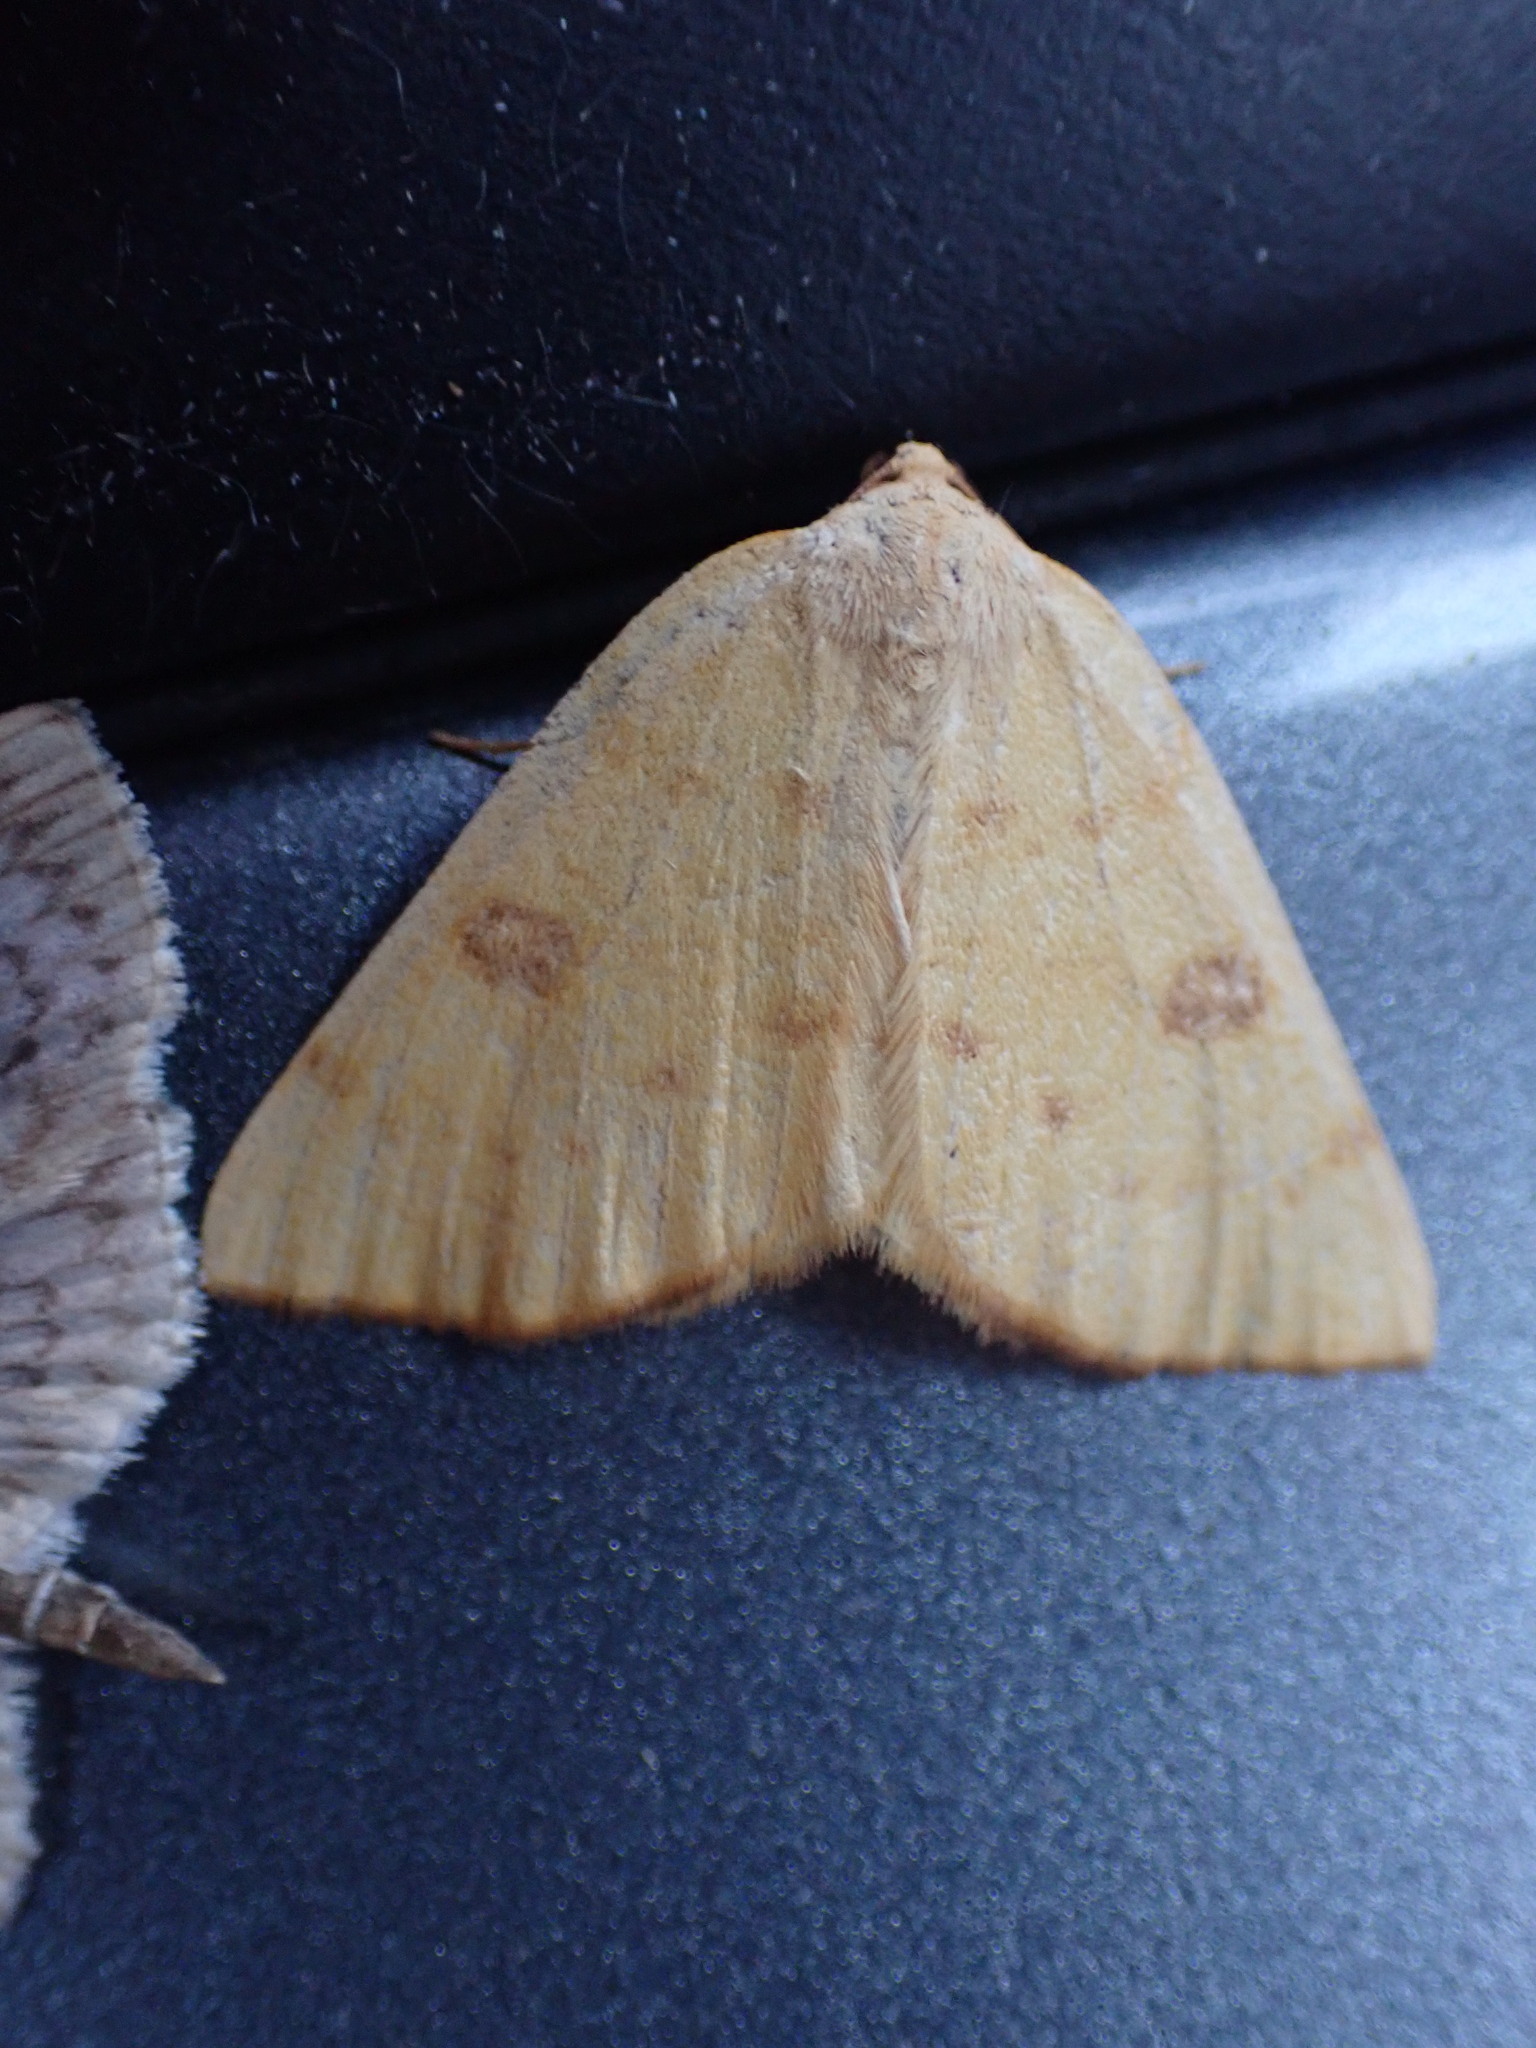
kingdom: Animalia
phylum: Arthropoda
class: Insecta
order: Lepidoptera
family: Geometridae
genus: Hesperumia
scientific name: Hesperumia sulphuraria
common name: Sulphur moth
